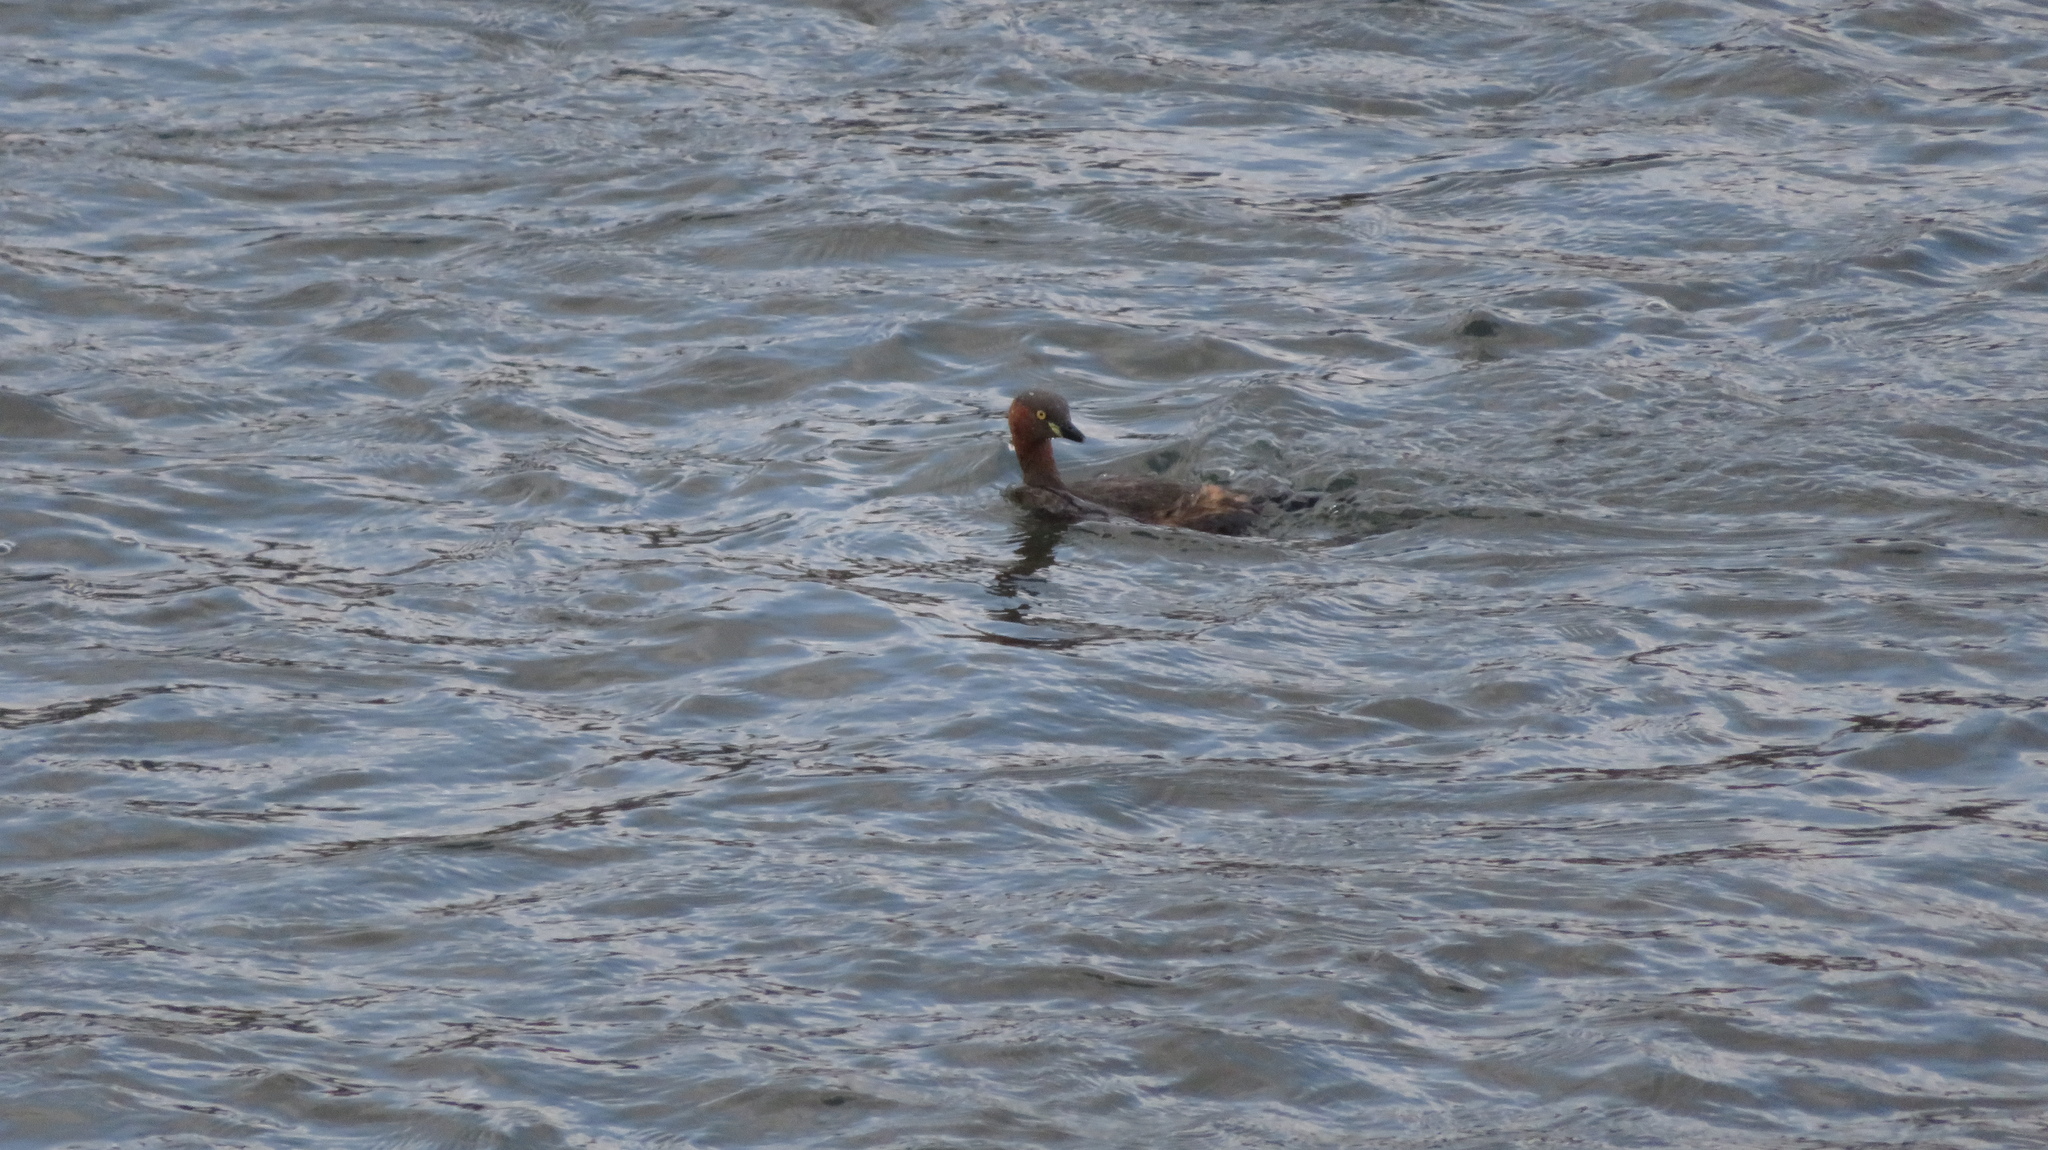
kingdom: Animalia
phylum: Chordata
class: Aves
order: Podicipediformes
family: Podicipedidae
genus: Tachybaptus
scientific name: Tachybaptus ruficollis
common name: Little grebe
